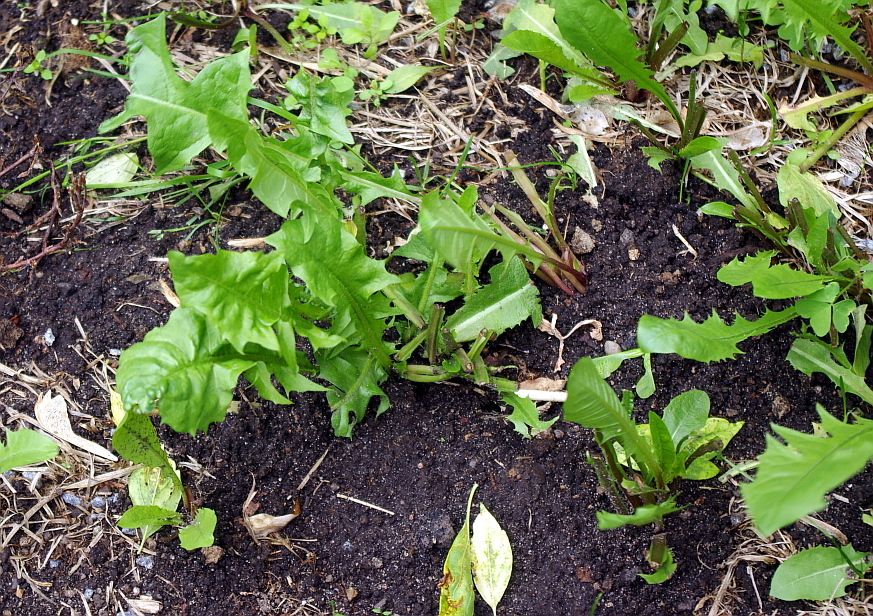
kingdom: Plantae
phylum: Tracheophyta
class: Magnoliopsida
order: Asterales
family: Asteraceae
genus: Taraxacum
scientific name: Taraxacum officinale
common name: Common dandelion
